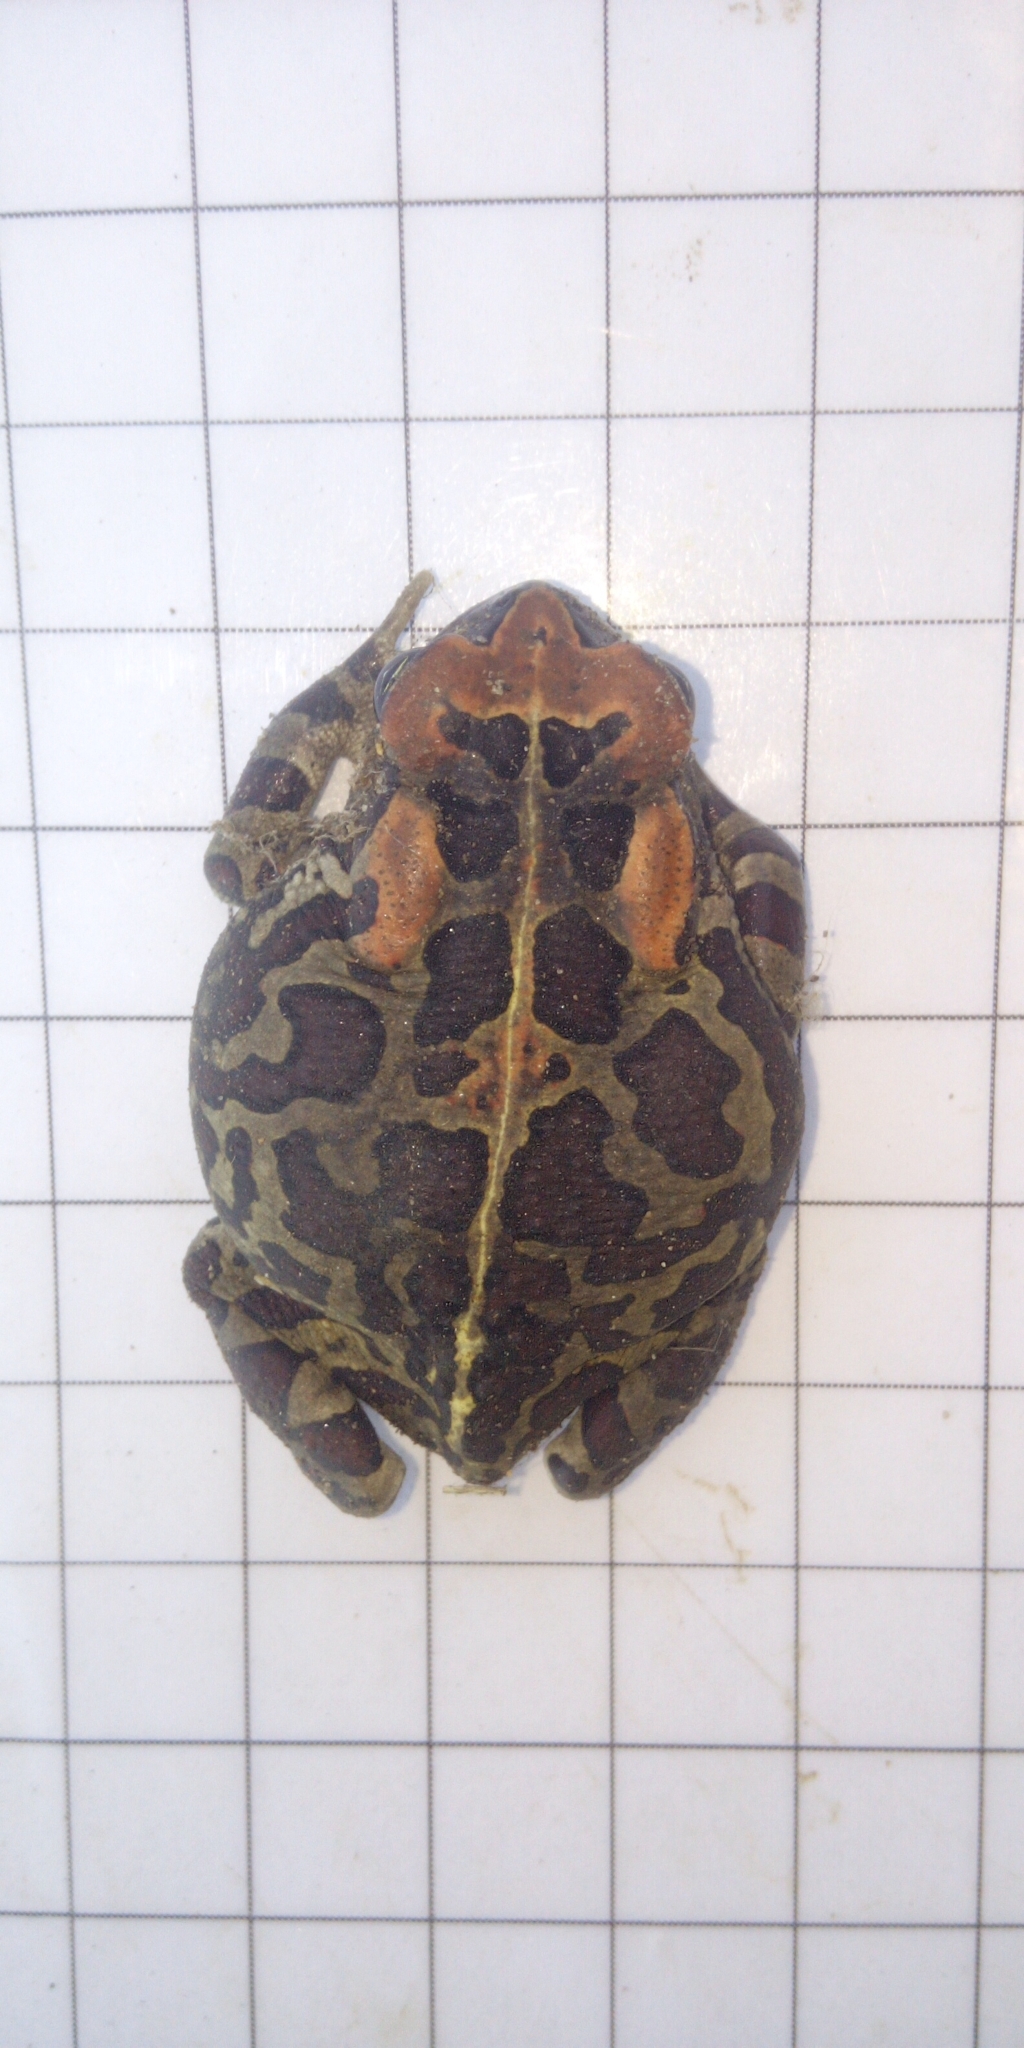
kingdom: Animalia
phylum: Chordata
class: Amphibia
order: Anura
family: Bufonidae
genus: Sclerophrys
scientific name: Sclerophrys pantherina
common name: Panther toad
